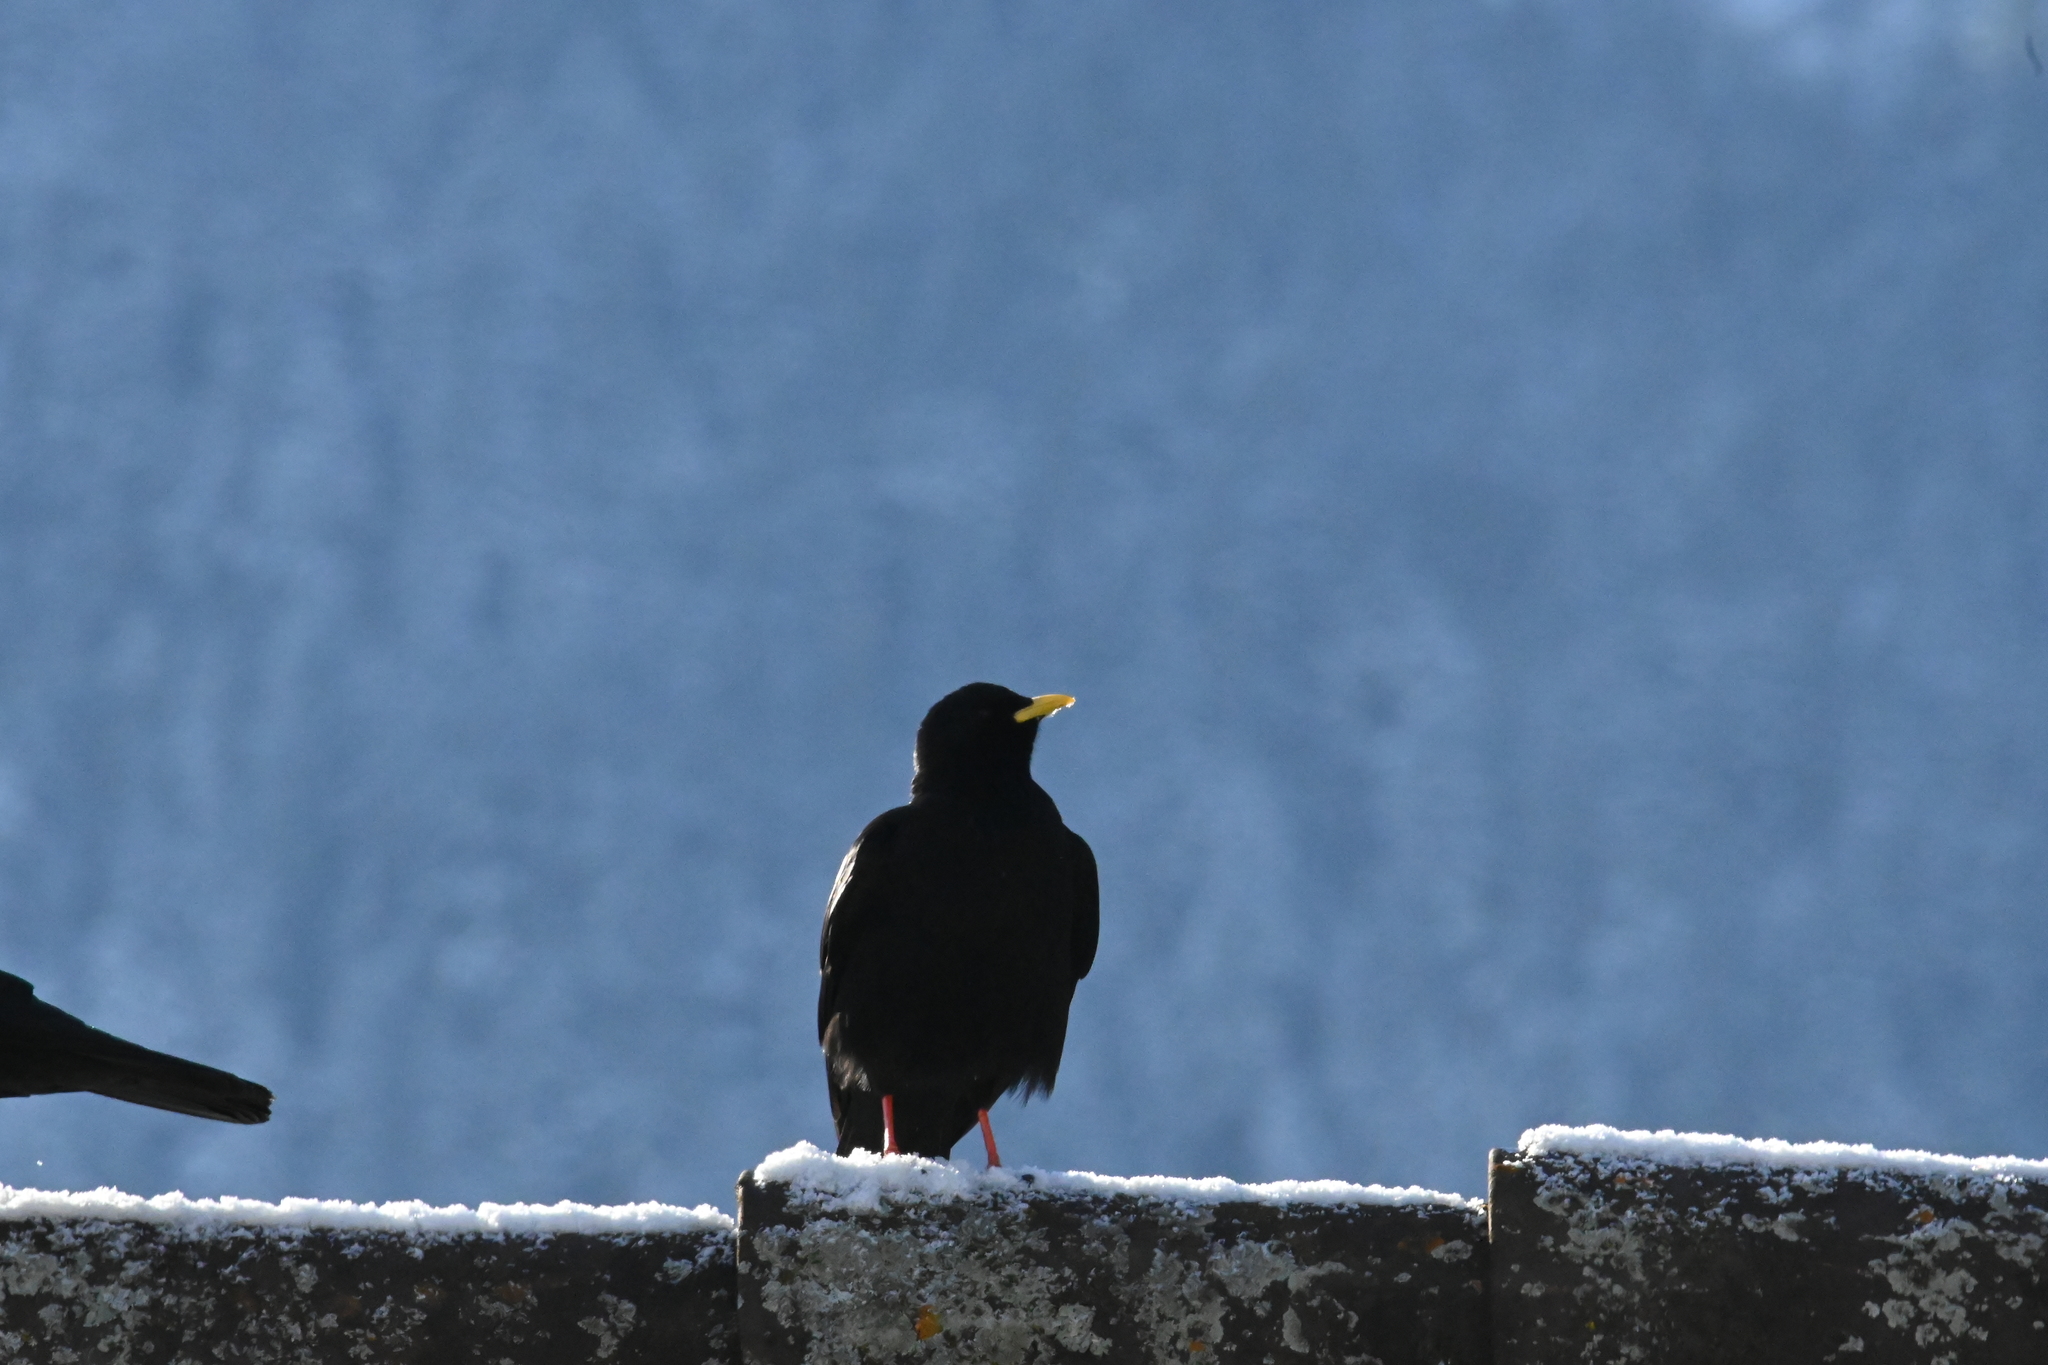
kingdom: Animalia
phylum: Chordata
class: Aves
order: Passeriformes
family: Corvidae
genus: Pyrrhocorax
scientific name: Pyrrhocorax graculus
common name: Alpine chough
